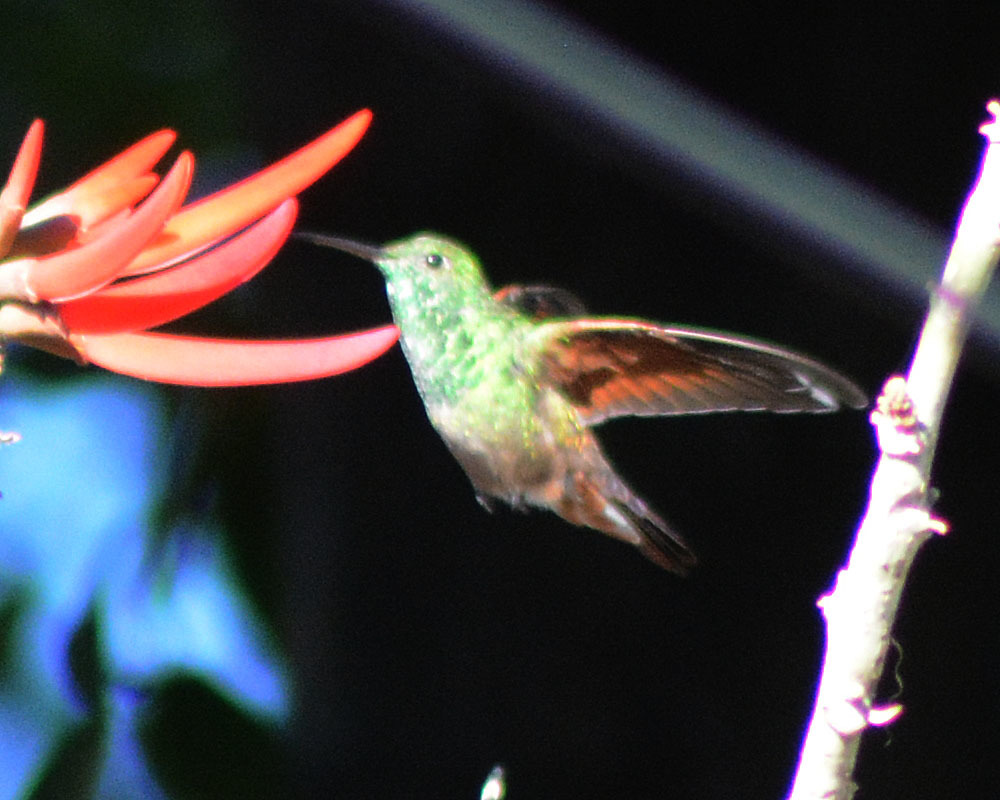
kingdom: Animalia
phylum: Chordata
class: Aves
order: Apodiformes
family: Trochilidae
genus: Saucerottia
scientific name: Saucerottia beryllina
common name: Berylline hummingbird
